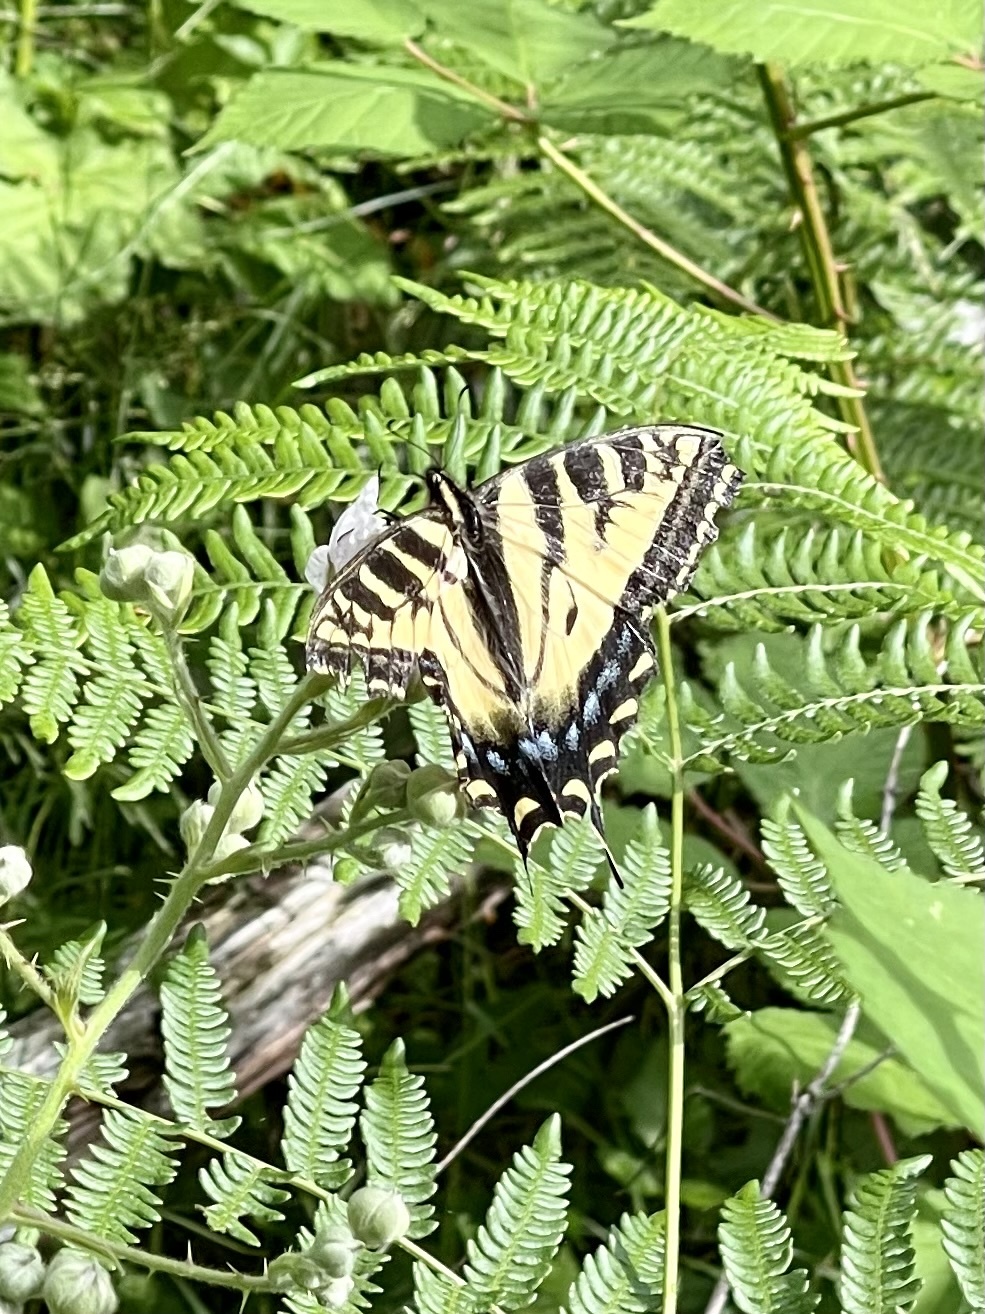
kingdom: Animalia
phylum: Arthropoda
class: Insecta
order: Lepidoptera
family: Papilionidae
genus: Papilio
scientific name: Papilio rutulus
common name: Western tiger swallowtail
